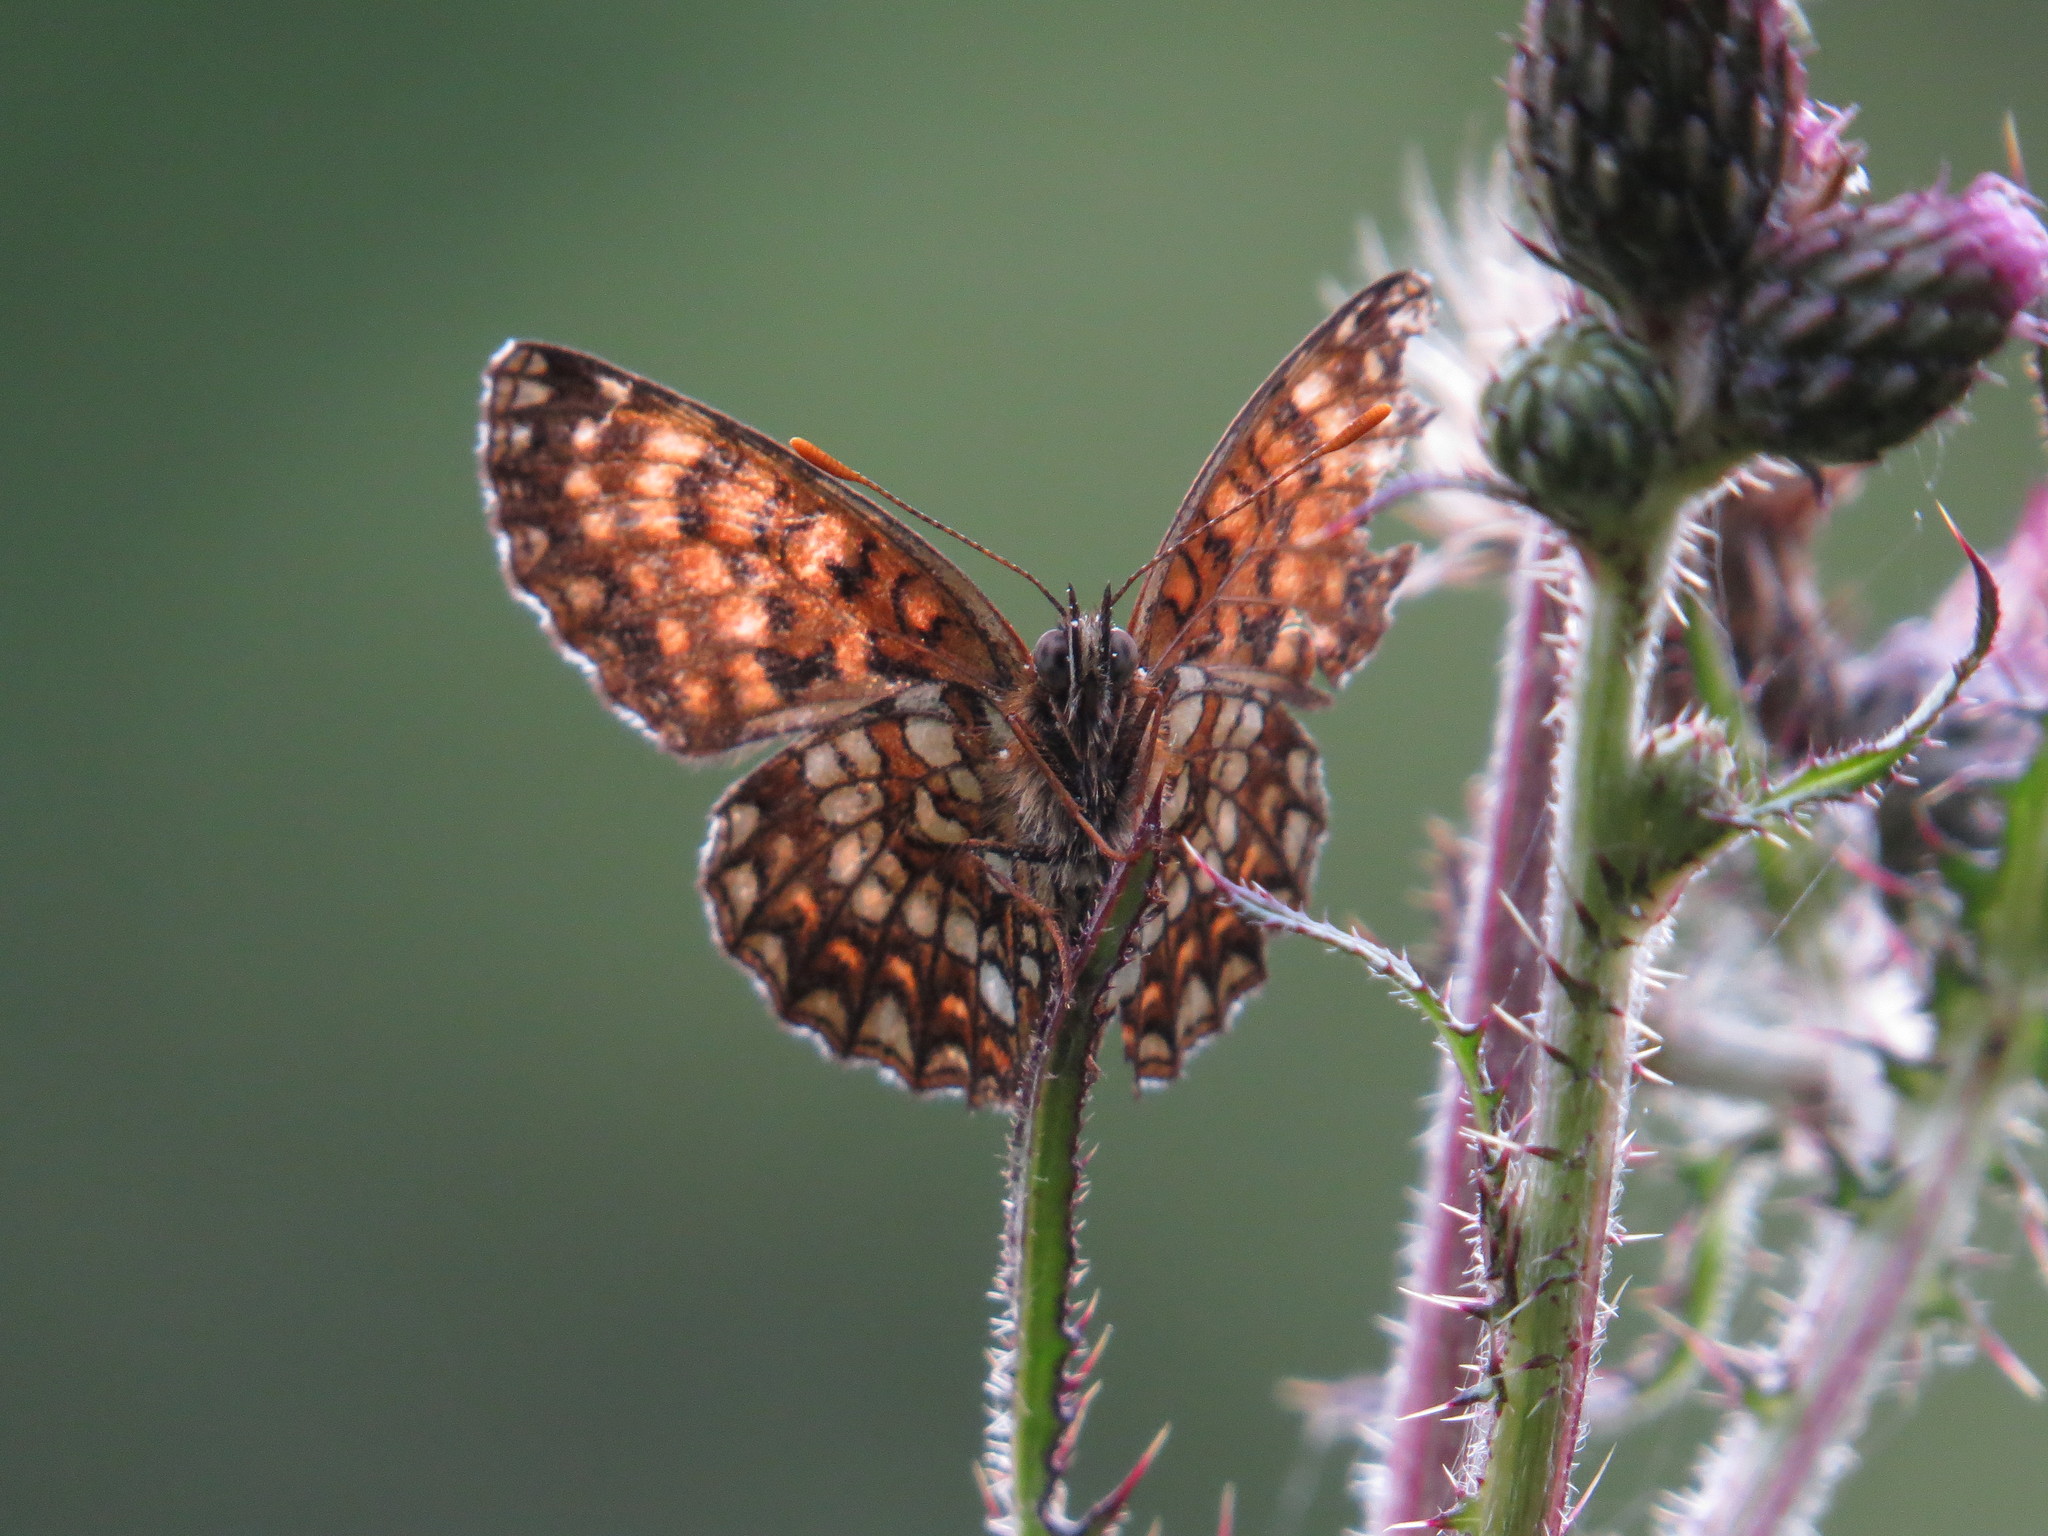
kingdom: Animalia
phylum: Arthropoda
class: Insecta
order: Lepidoptera
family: Nymphalidae
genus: Melitaea
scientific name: Melitaea diamina
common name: False heath fritillary
